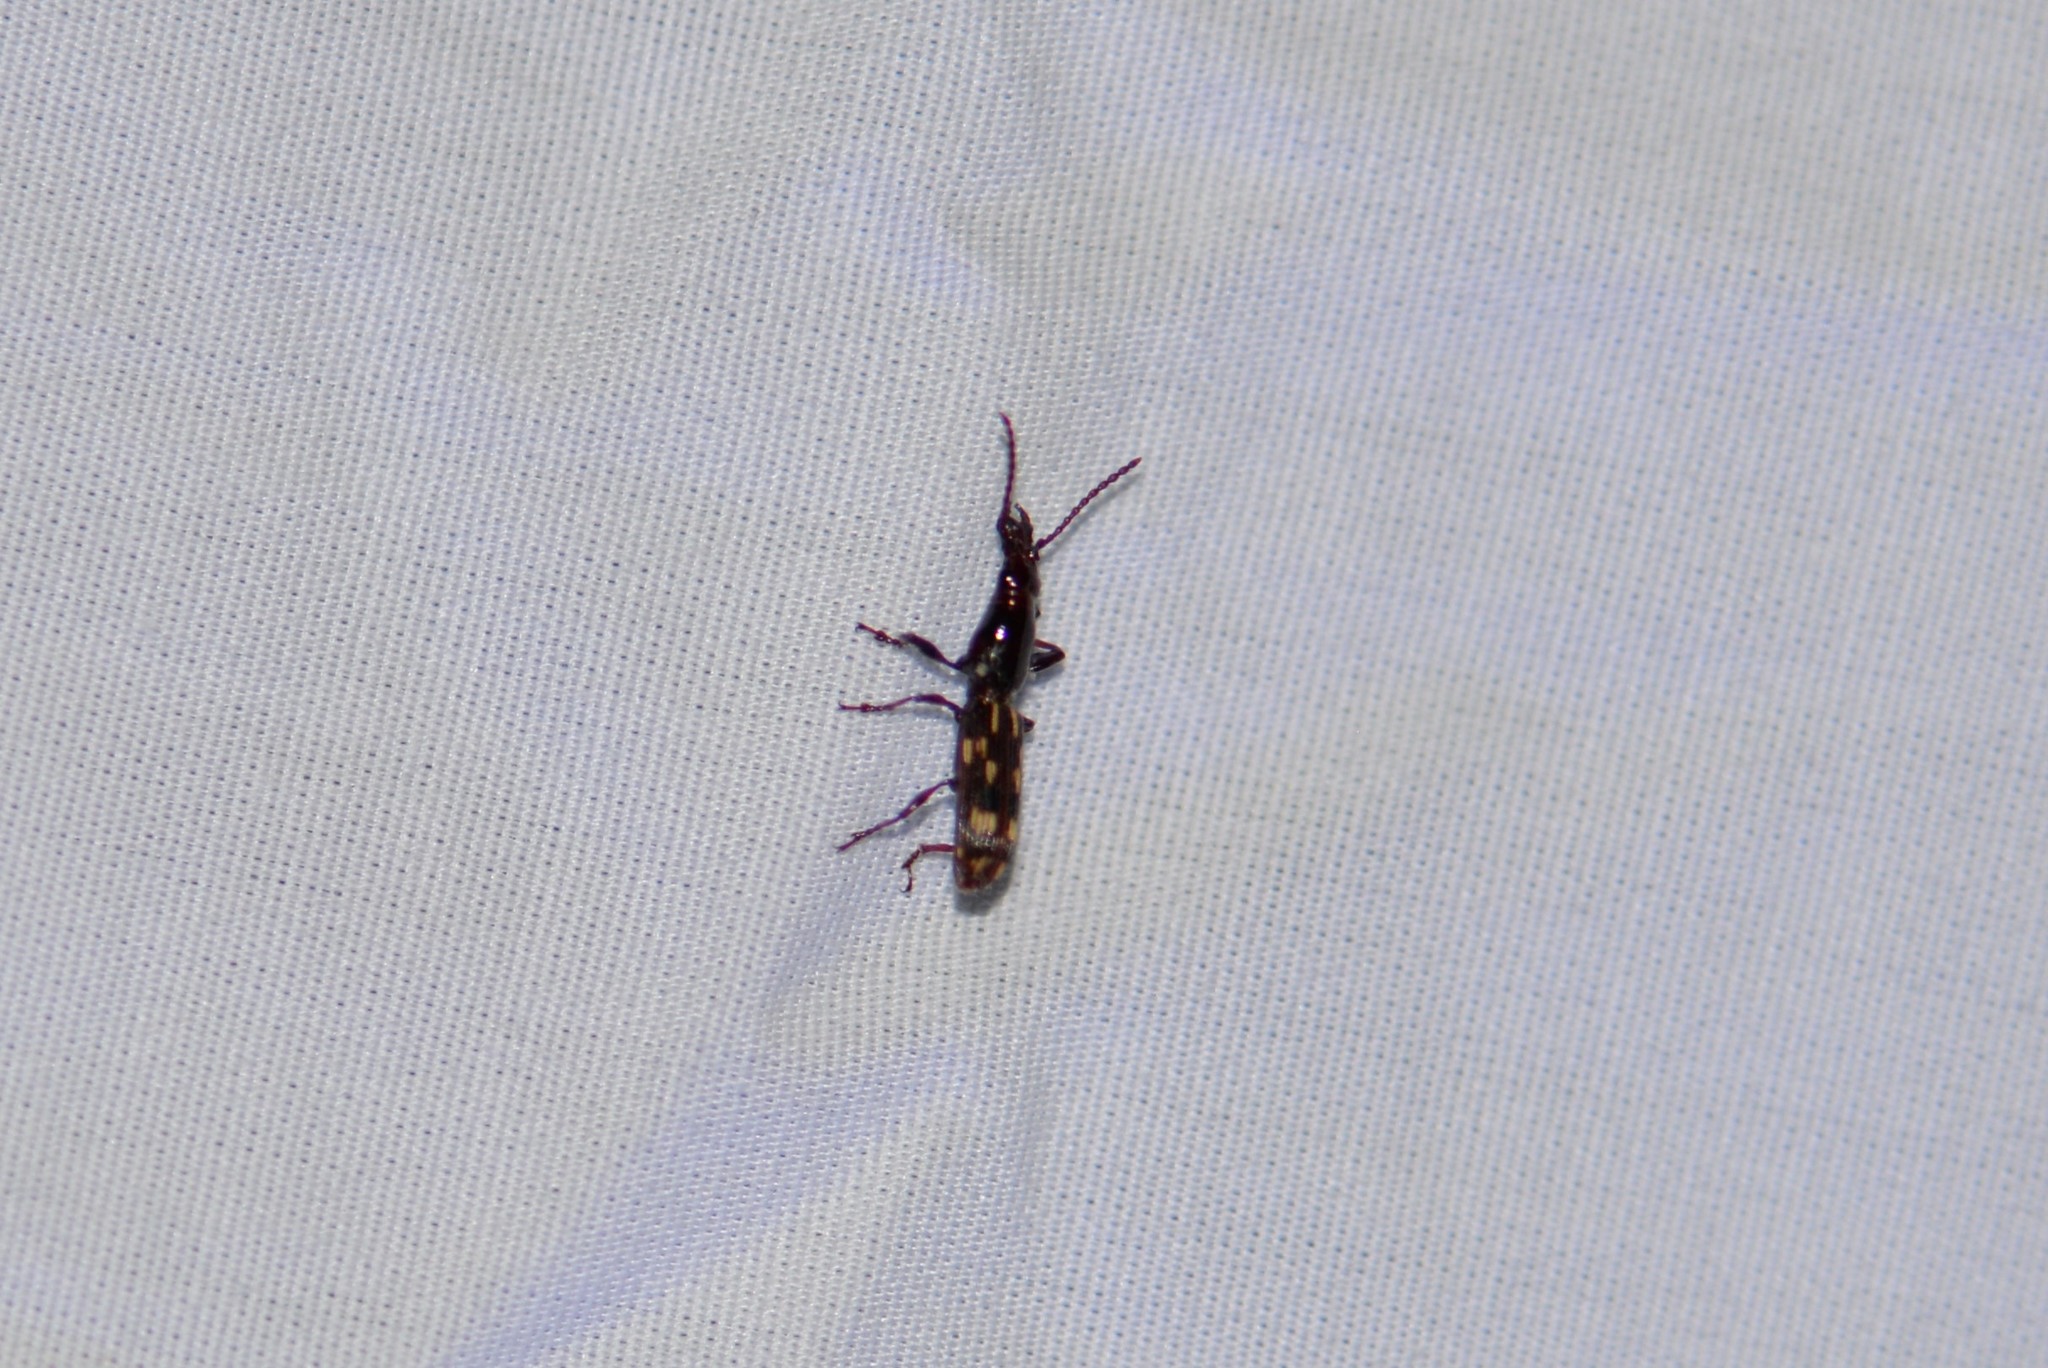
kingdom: Animalia
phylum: Arthropoda
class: Insecta
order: Coleoptera
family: Brentidae
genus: Arrenodes
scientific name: Arrenodes minutus
